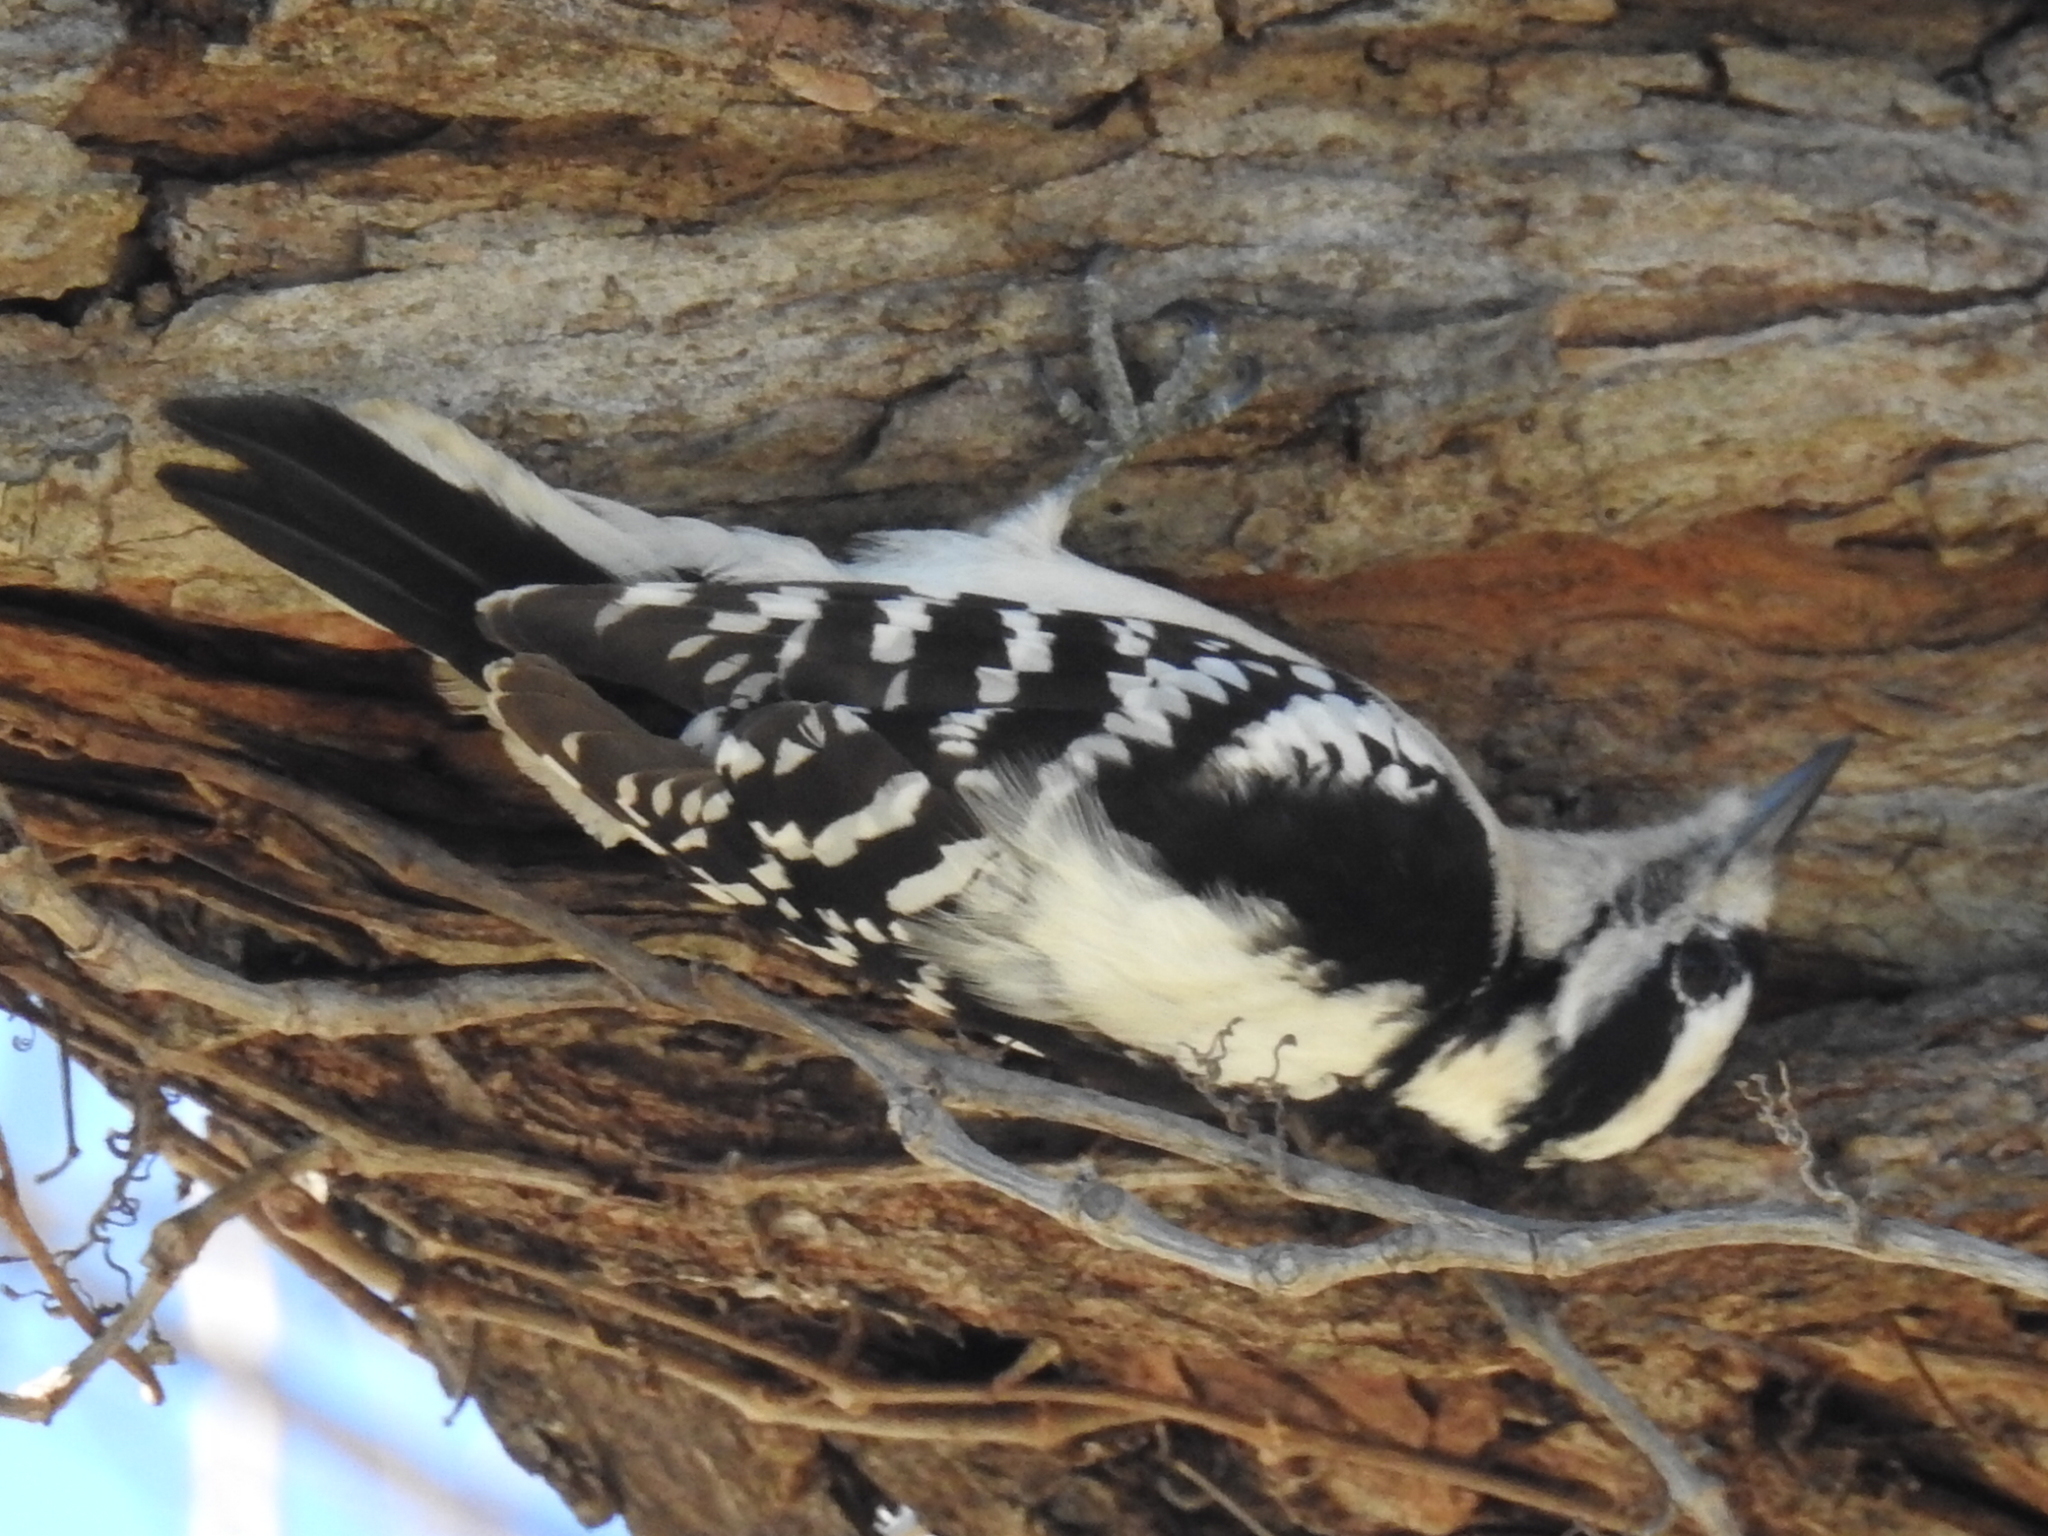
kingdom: Animalia
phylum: Chordata
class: Aves
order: Piciformes
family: Picidae
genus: Dryobates
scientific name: Dryobates pubescens
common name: Downy woodpecker
